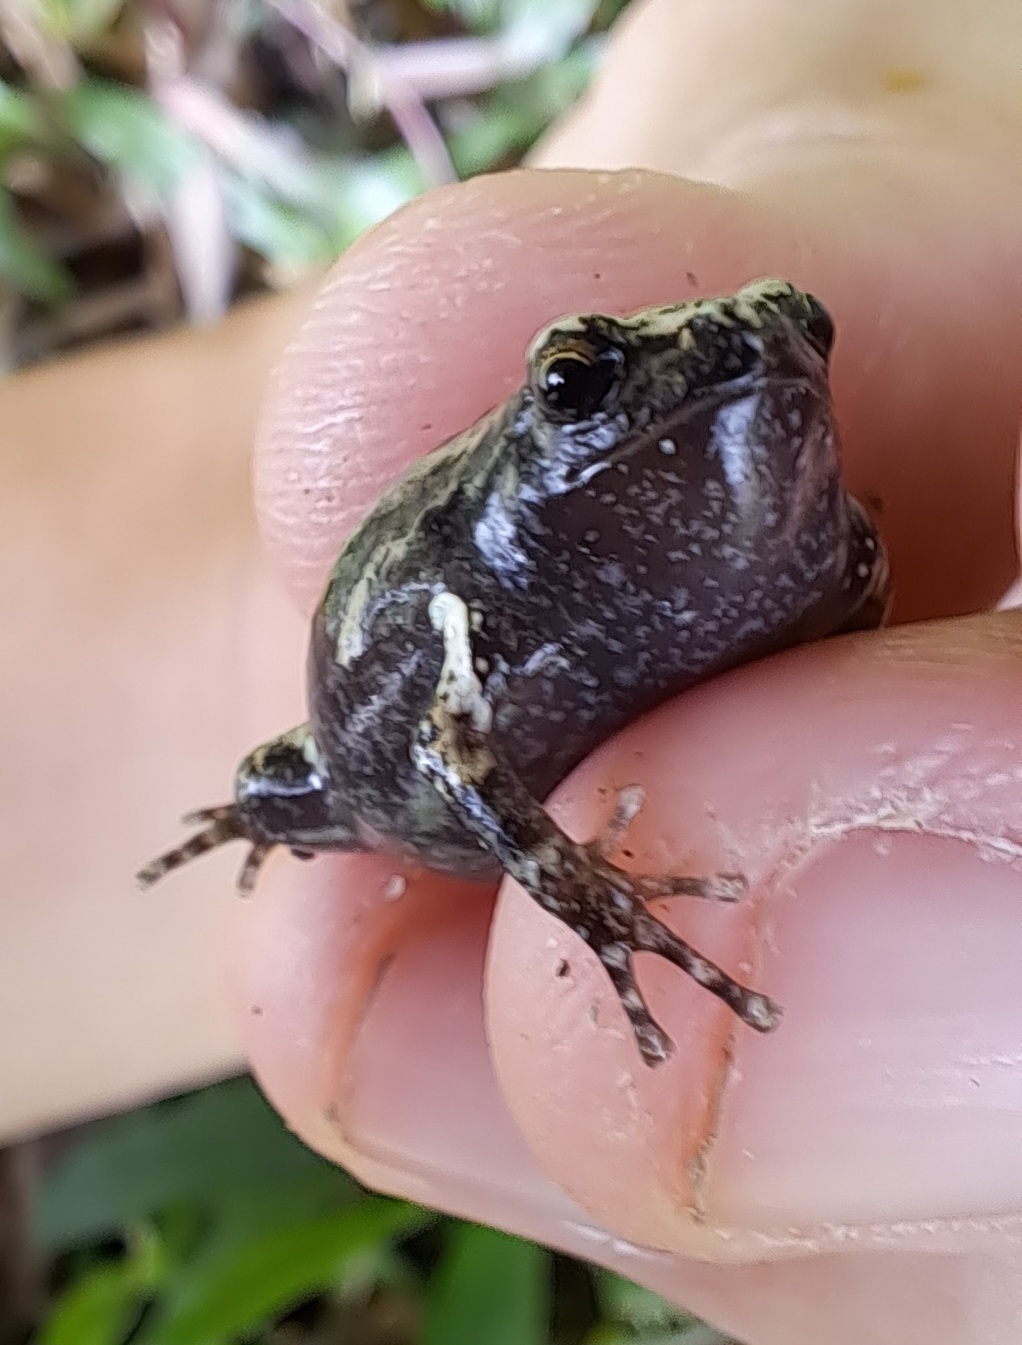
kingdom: Animalia
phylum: Chordata
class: Amphibia
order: Anura
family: Microhylidae
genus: Kaloula
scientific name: Kaloula pulchra
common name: Common,banded bullfrog
